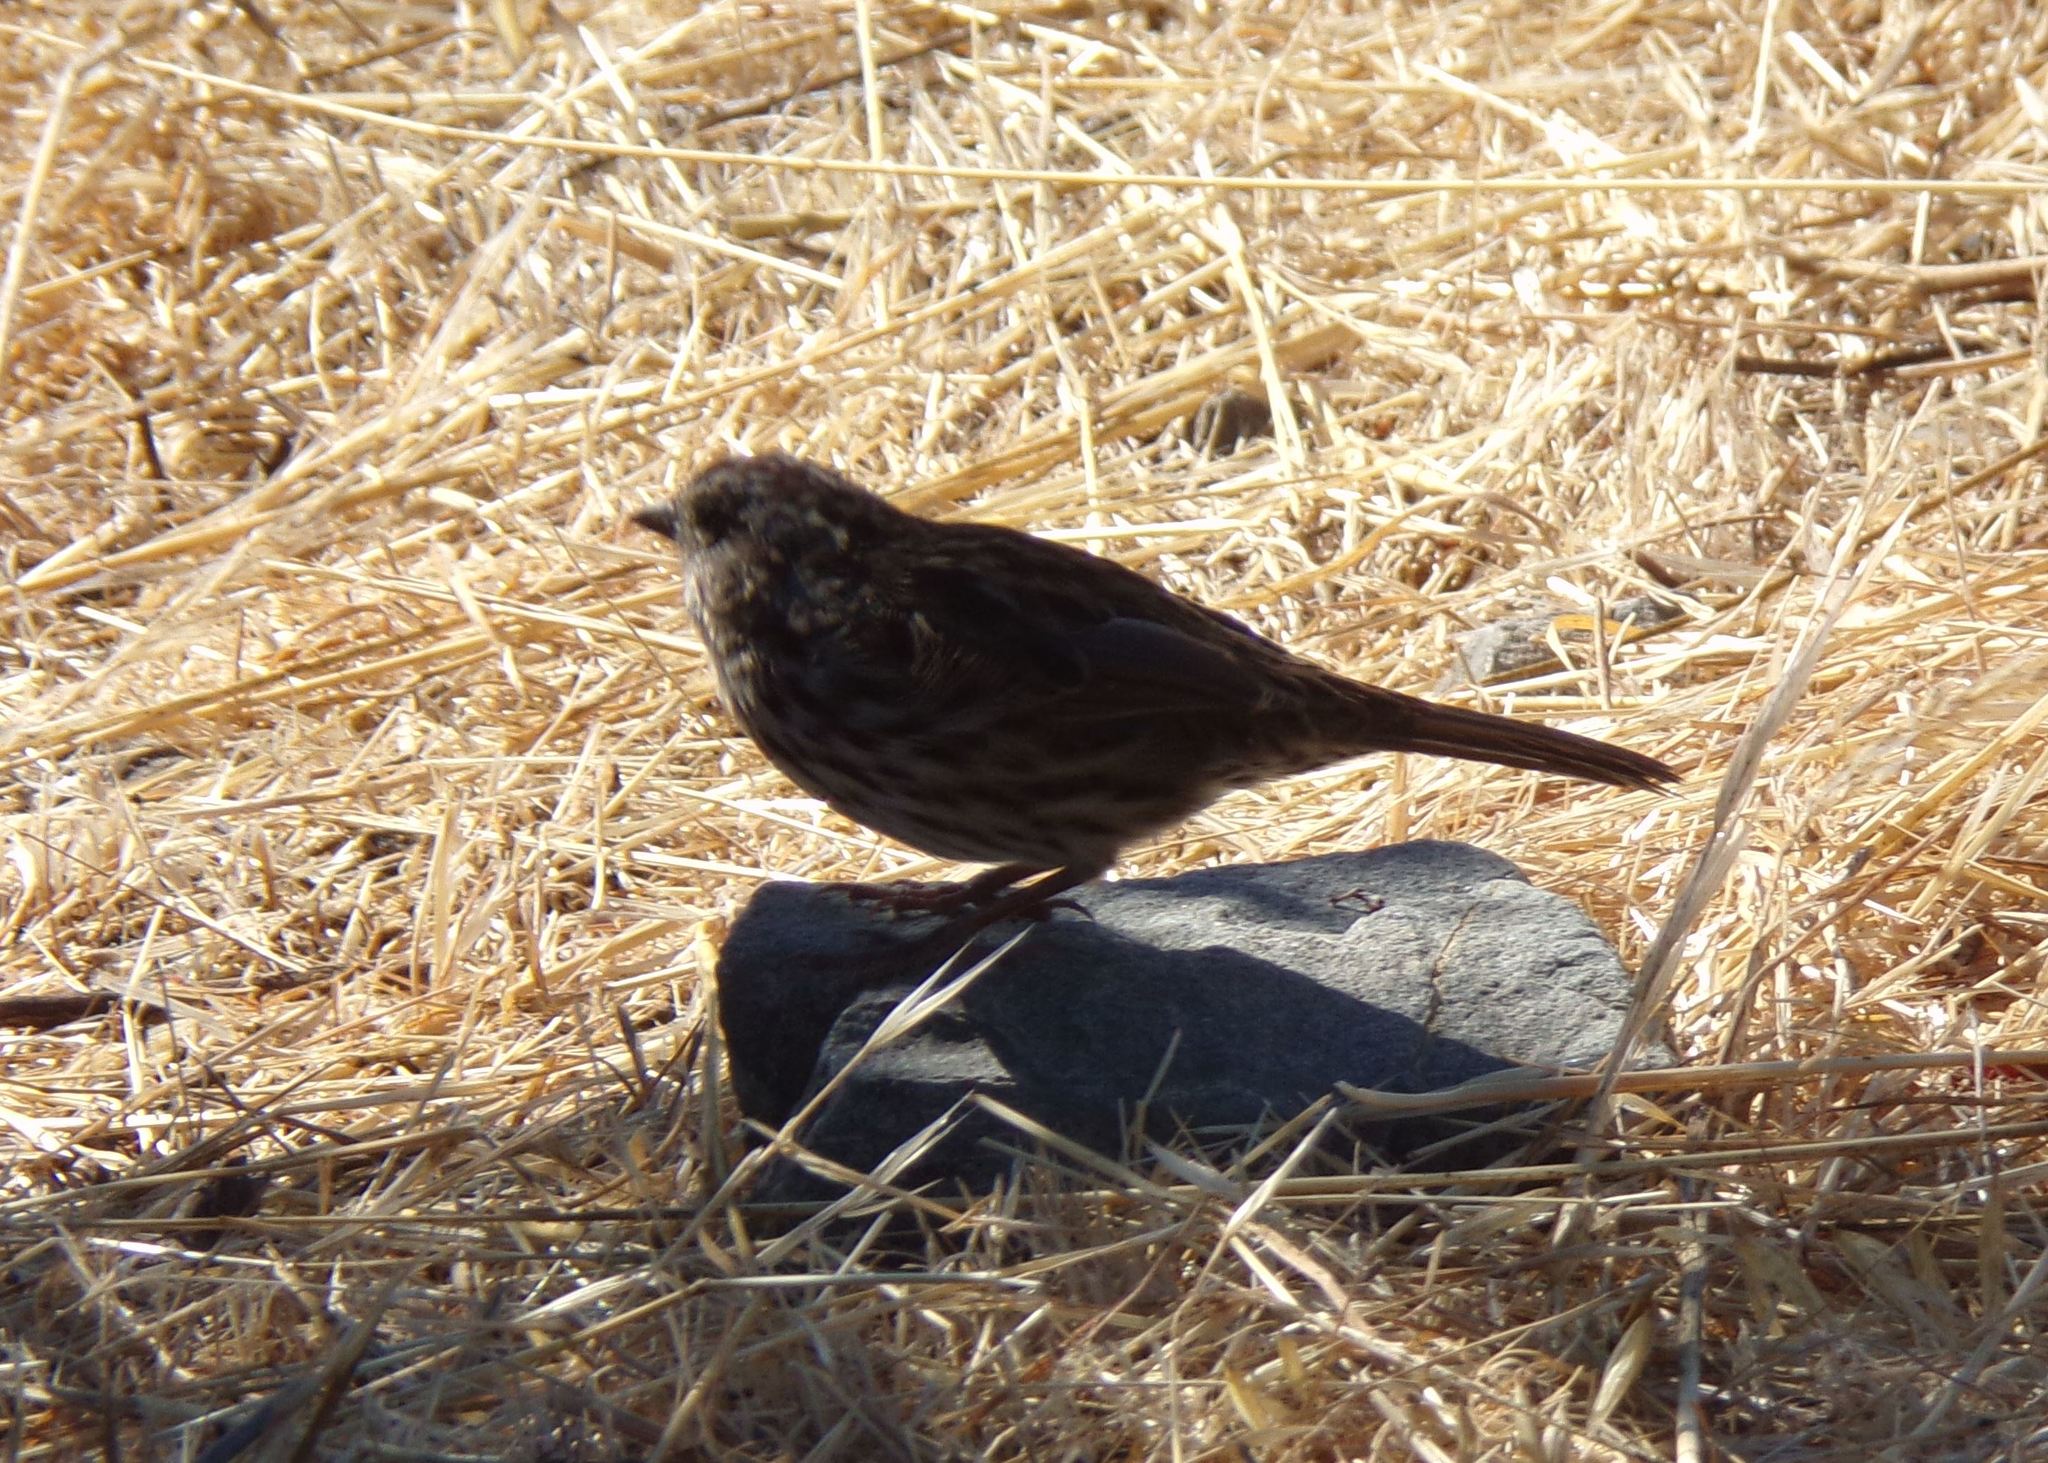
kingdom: Animalia
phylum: Chordata
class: Aves
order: Passeriformes
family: Passerellidae
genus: Melospiza
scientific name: Melospiza melodia
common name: Song sparrow
